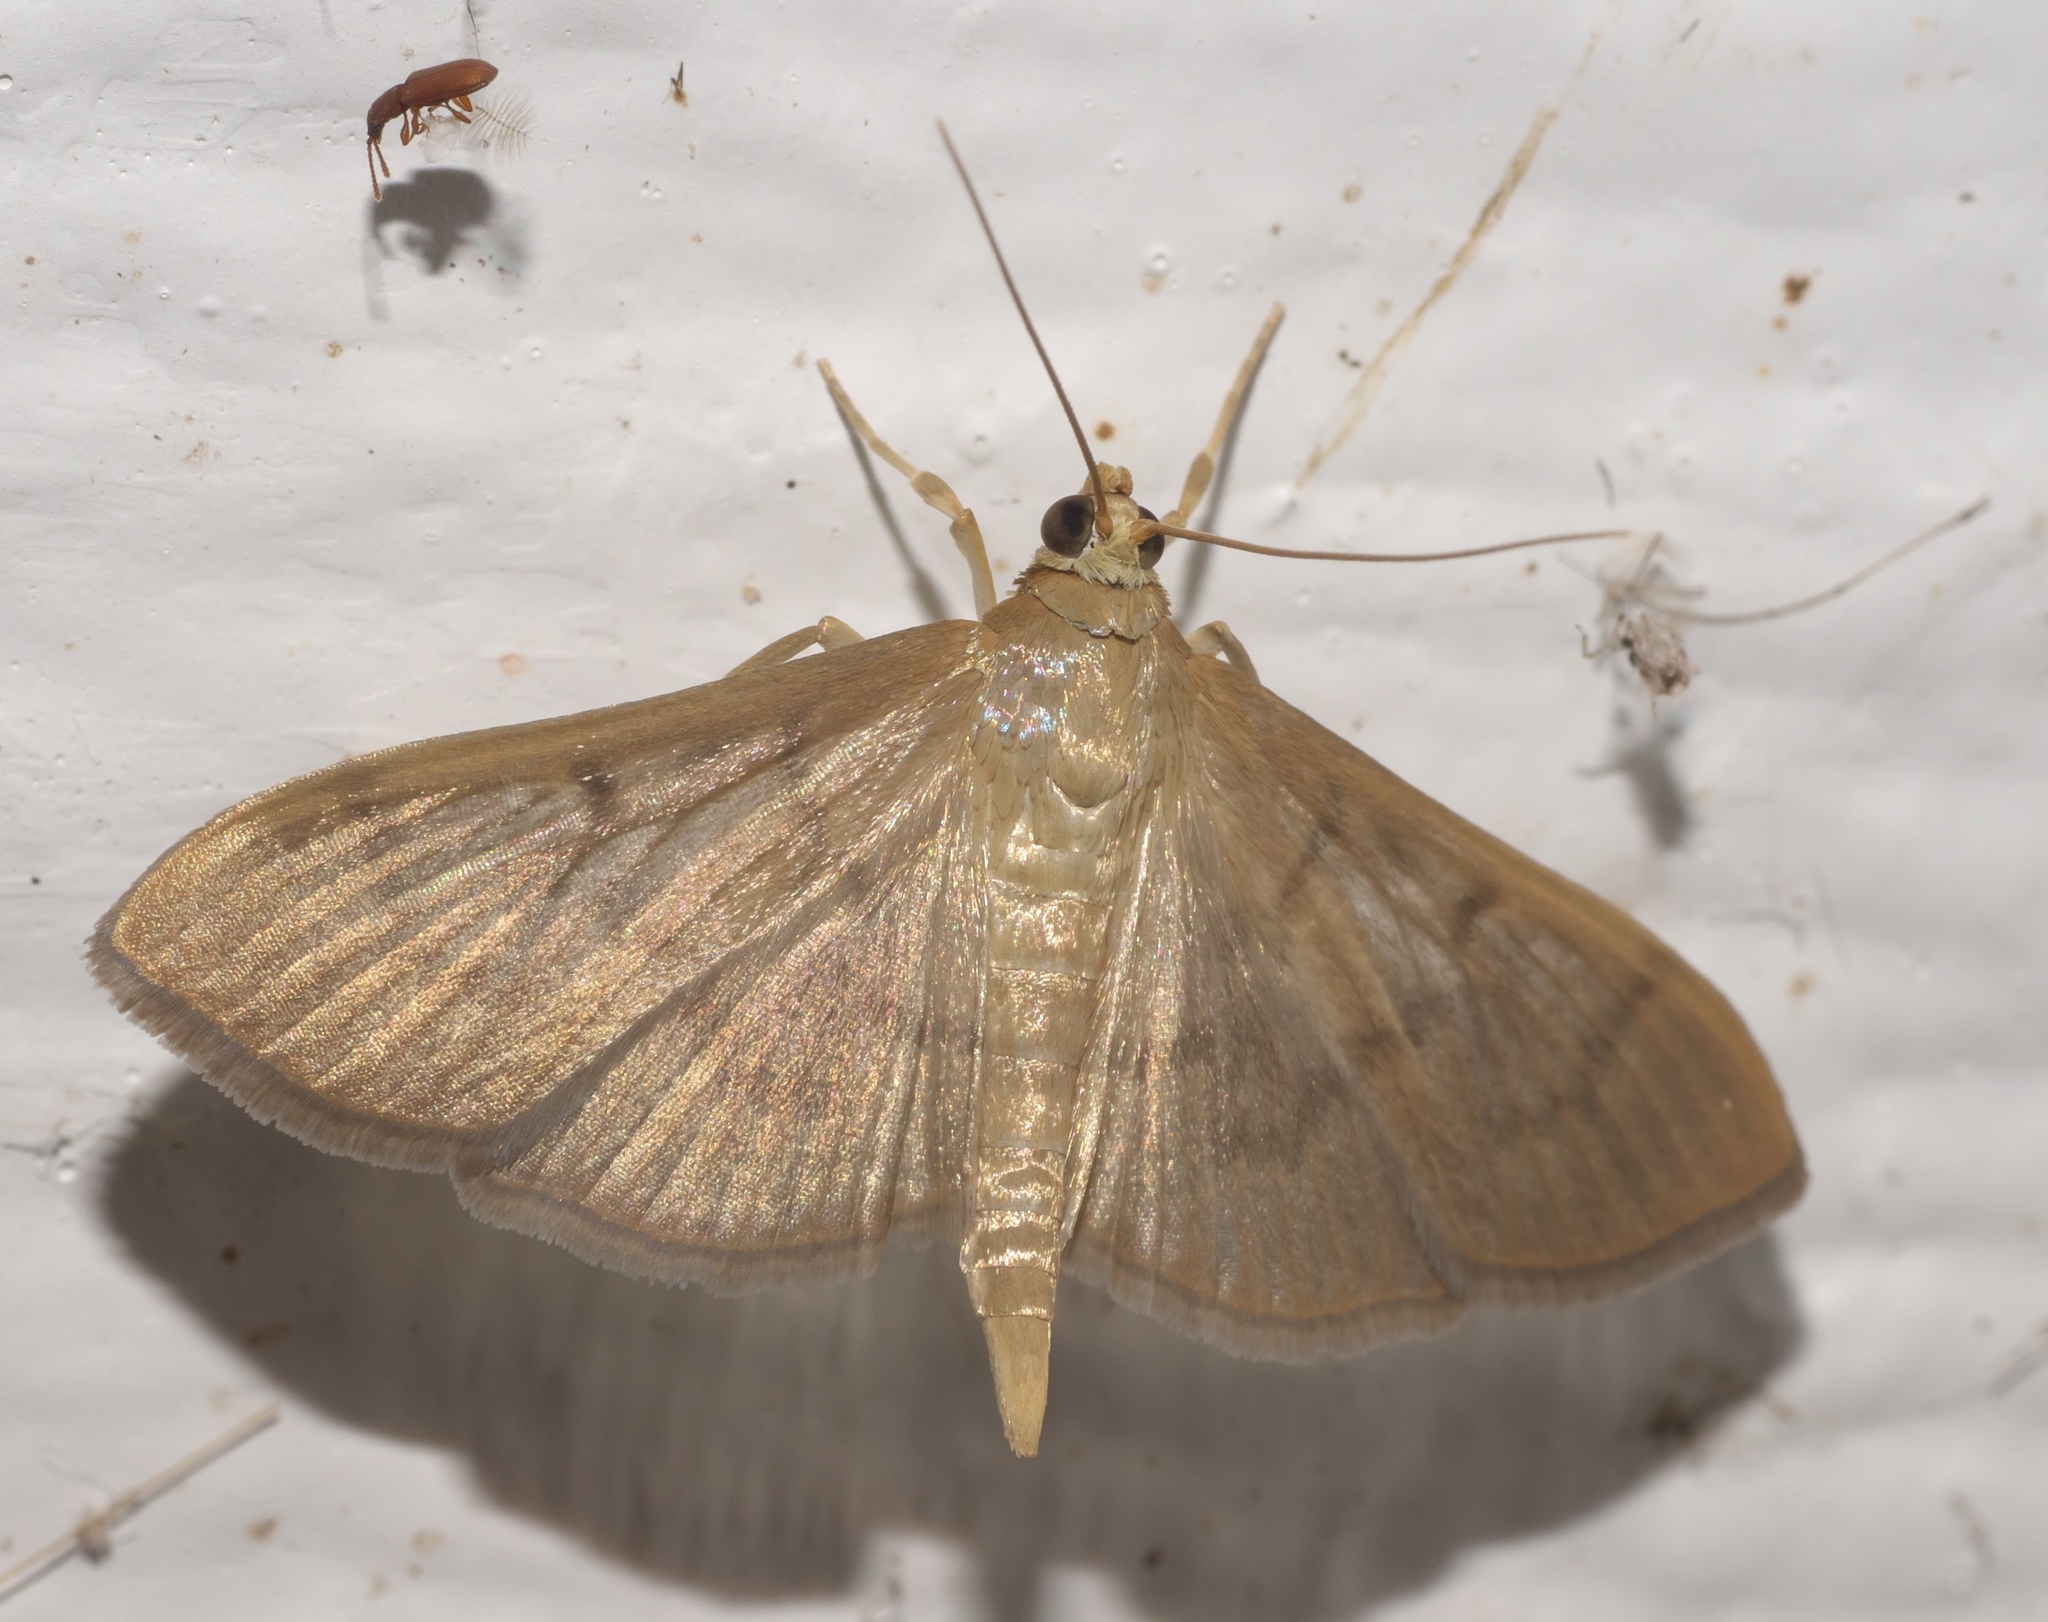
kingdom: Animalia
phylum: Arthropoda
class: Insecta
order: Lepidoptera
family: Crambidae
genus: Herpetogramma
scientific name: Herpetogramma phaeopteralis
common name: Dusky herpetogramma moth
